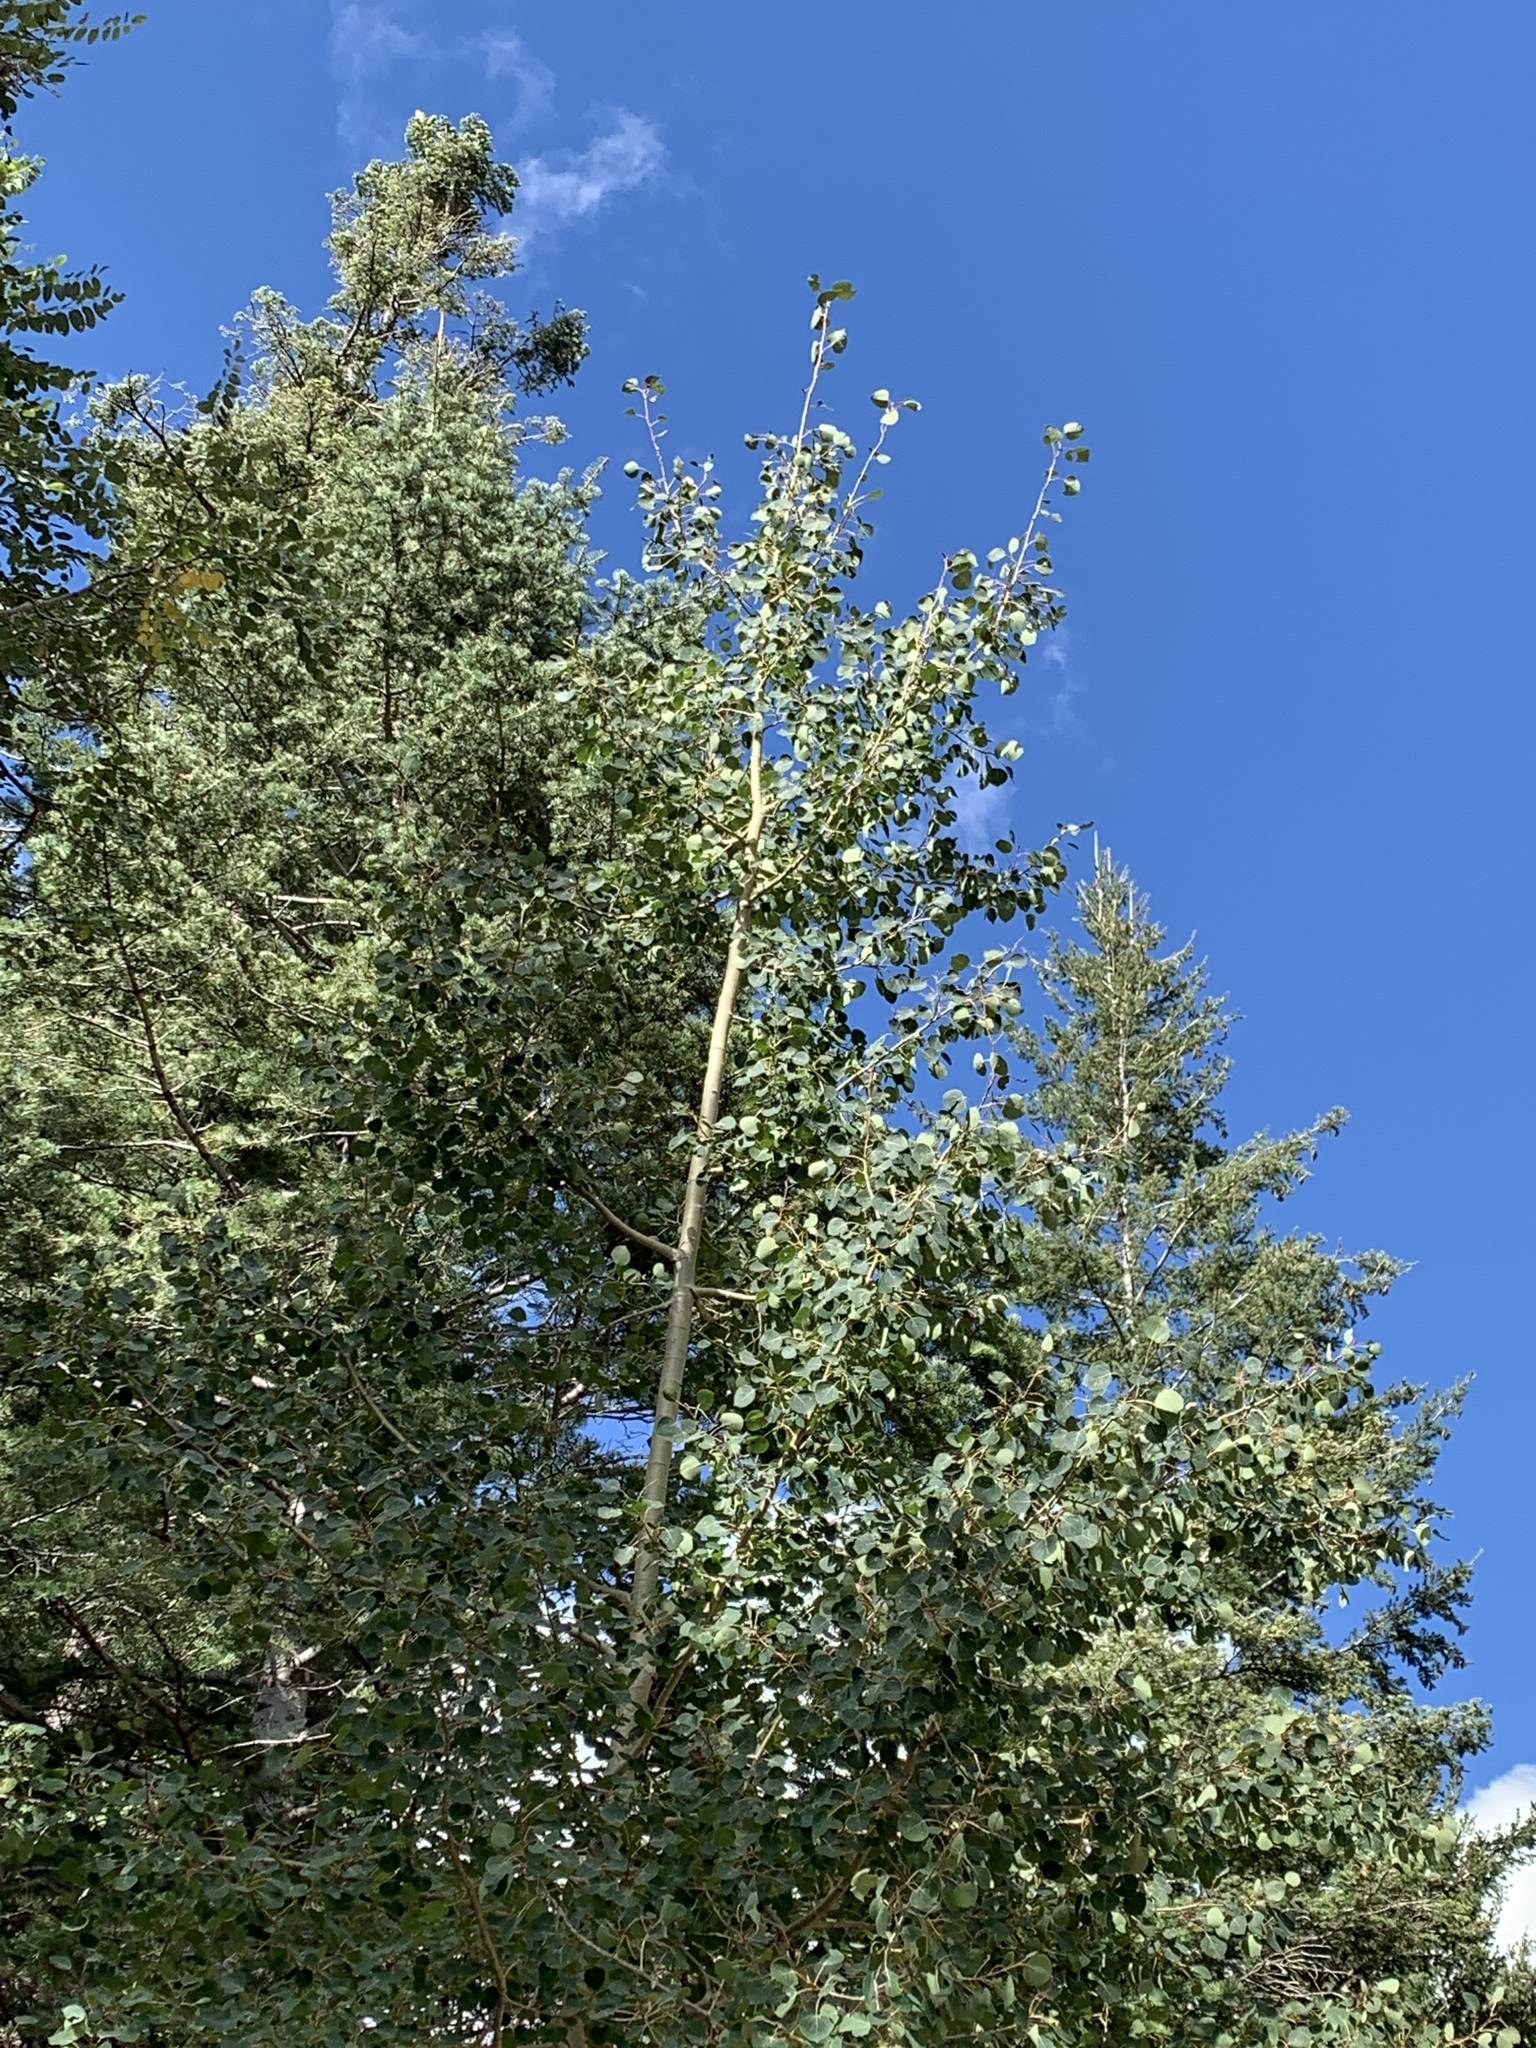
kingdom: Plantae
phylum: Tracheophyta
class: Magnoliopsida
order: Malpighiales
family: Salicaceae
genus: Populus
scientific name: Populus tremuloides
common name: Quaking aspen
